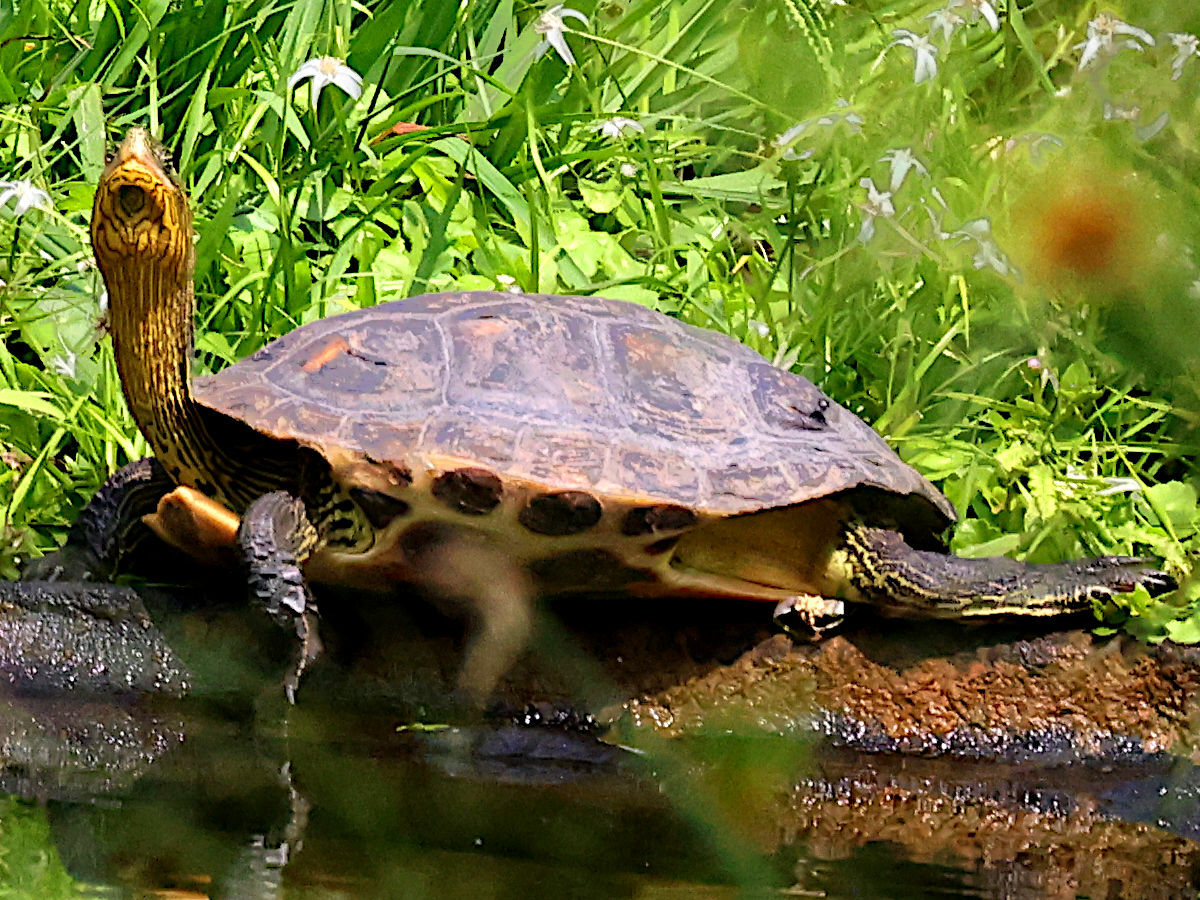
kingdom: Animalia
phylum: Chordata
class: Testudines
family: Geoemydidae
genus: Mauremys
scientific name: Mauremys sinensis
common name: Chinese stripe-necked turtle
